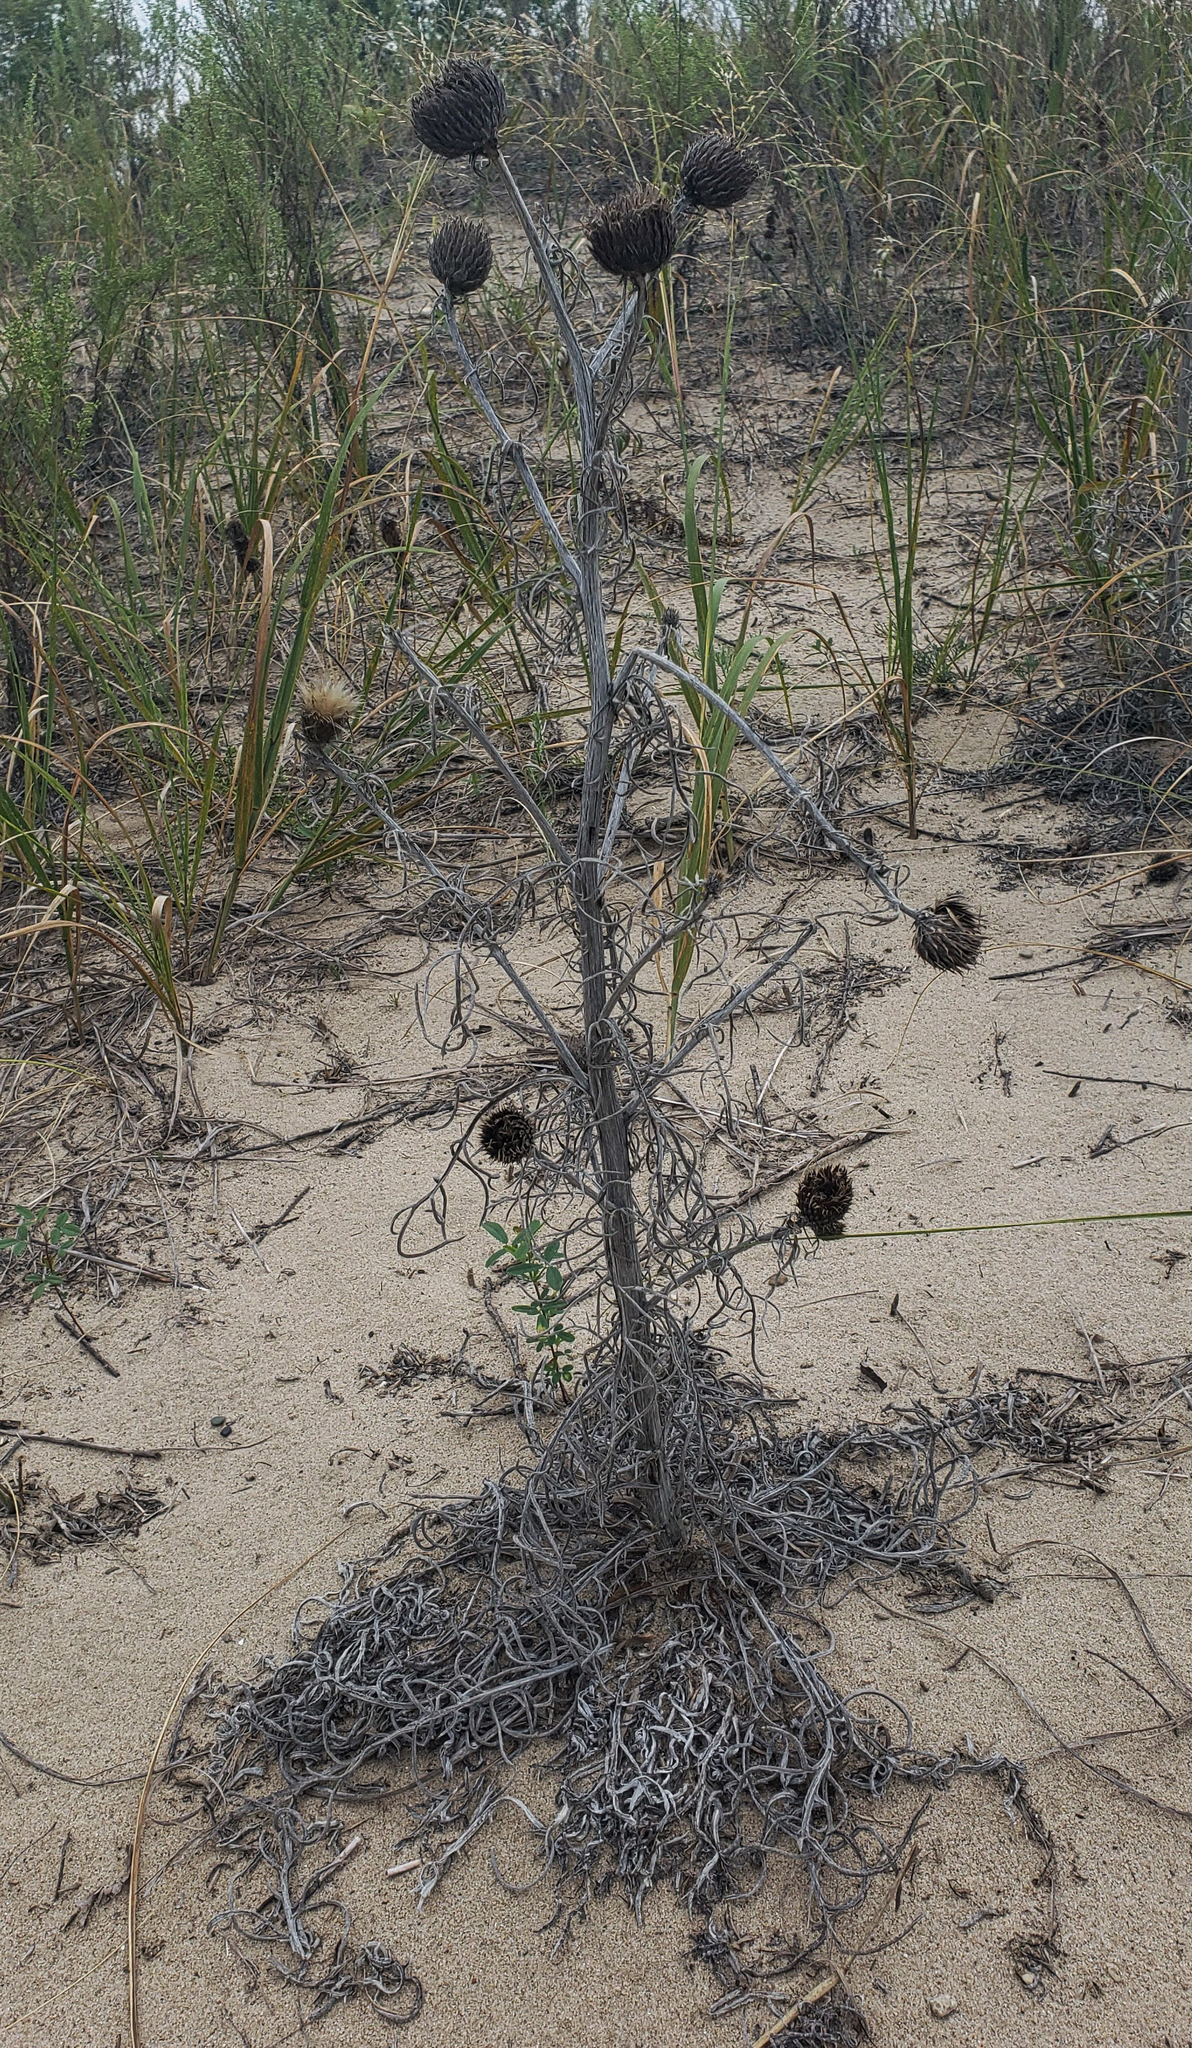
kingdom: Plantae
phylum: Tracheophyta
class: Magnoliopsida
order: Asterales
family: Asteraceae
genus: Cirsium
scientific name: Cirsium pitcheri
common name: Dune thistle
